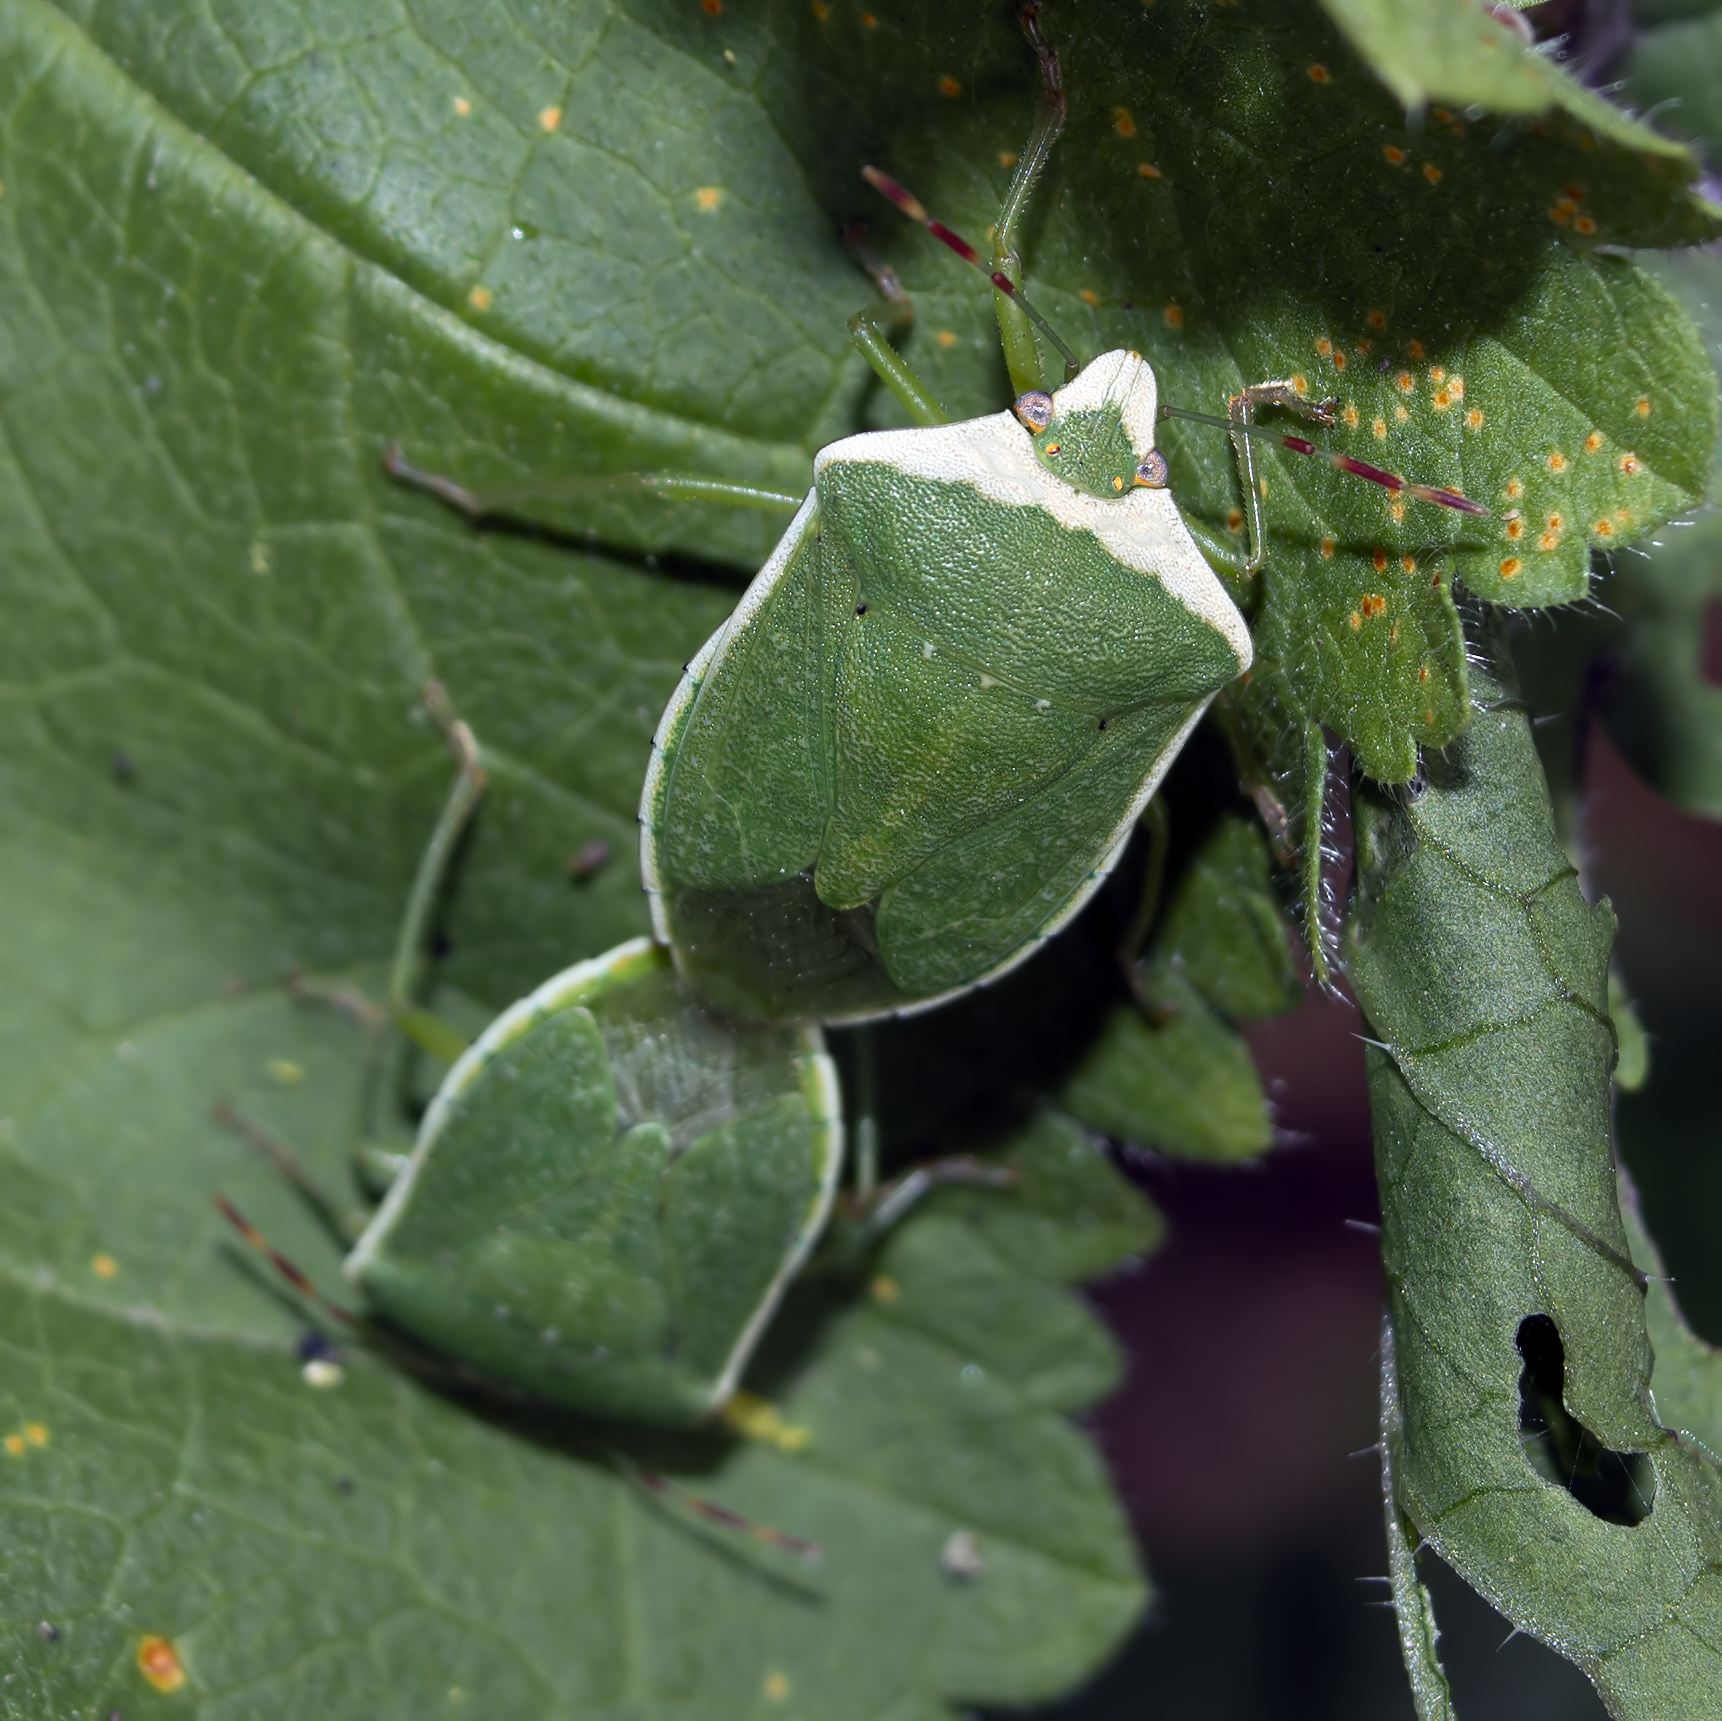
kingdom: Animalia
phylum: Arthropoda
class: Insecta
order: Hemiptera
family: Pentatomidae
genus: Nezara
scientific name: Nezara viridula
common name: Southern green stink bug
